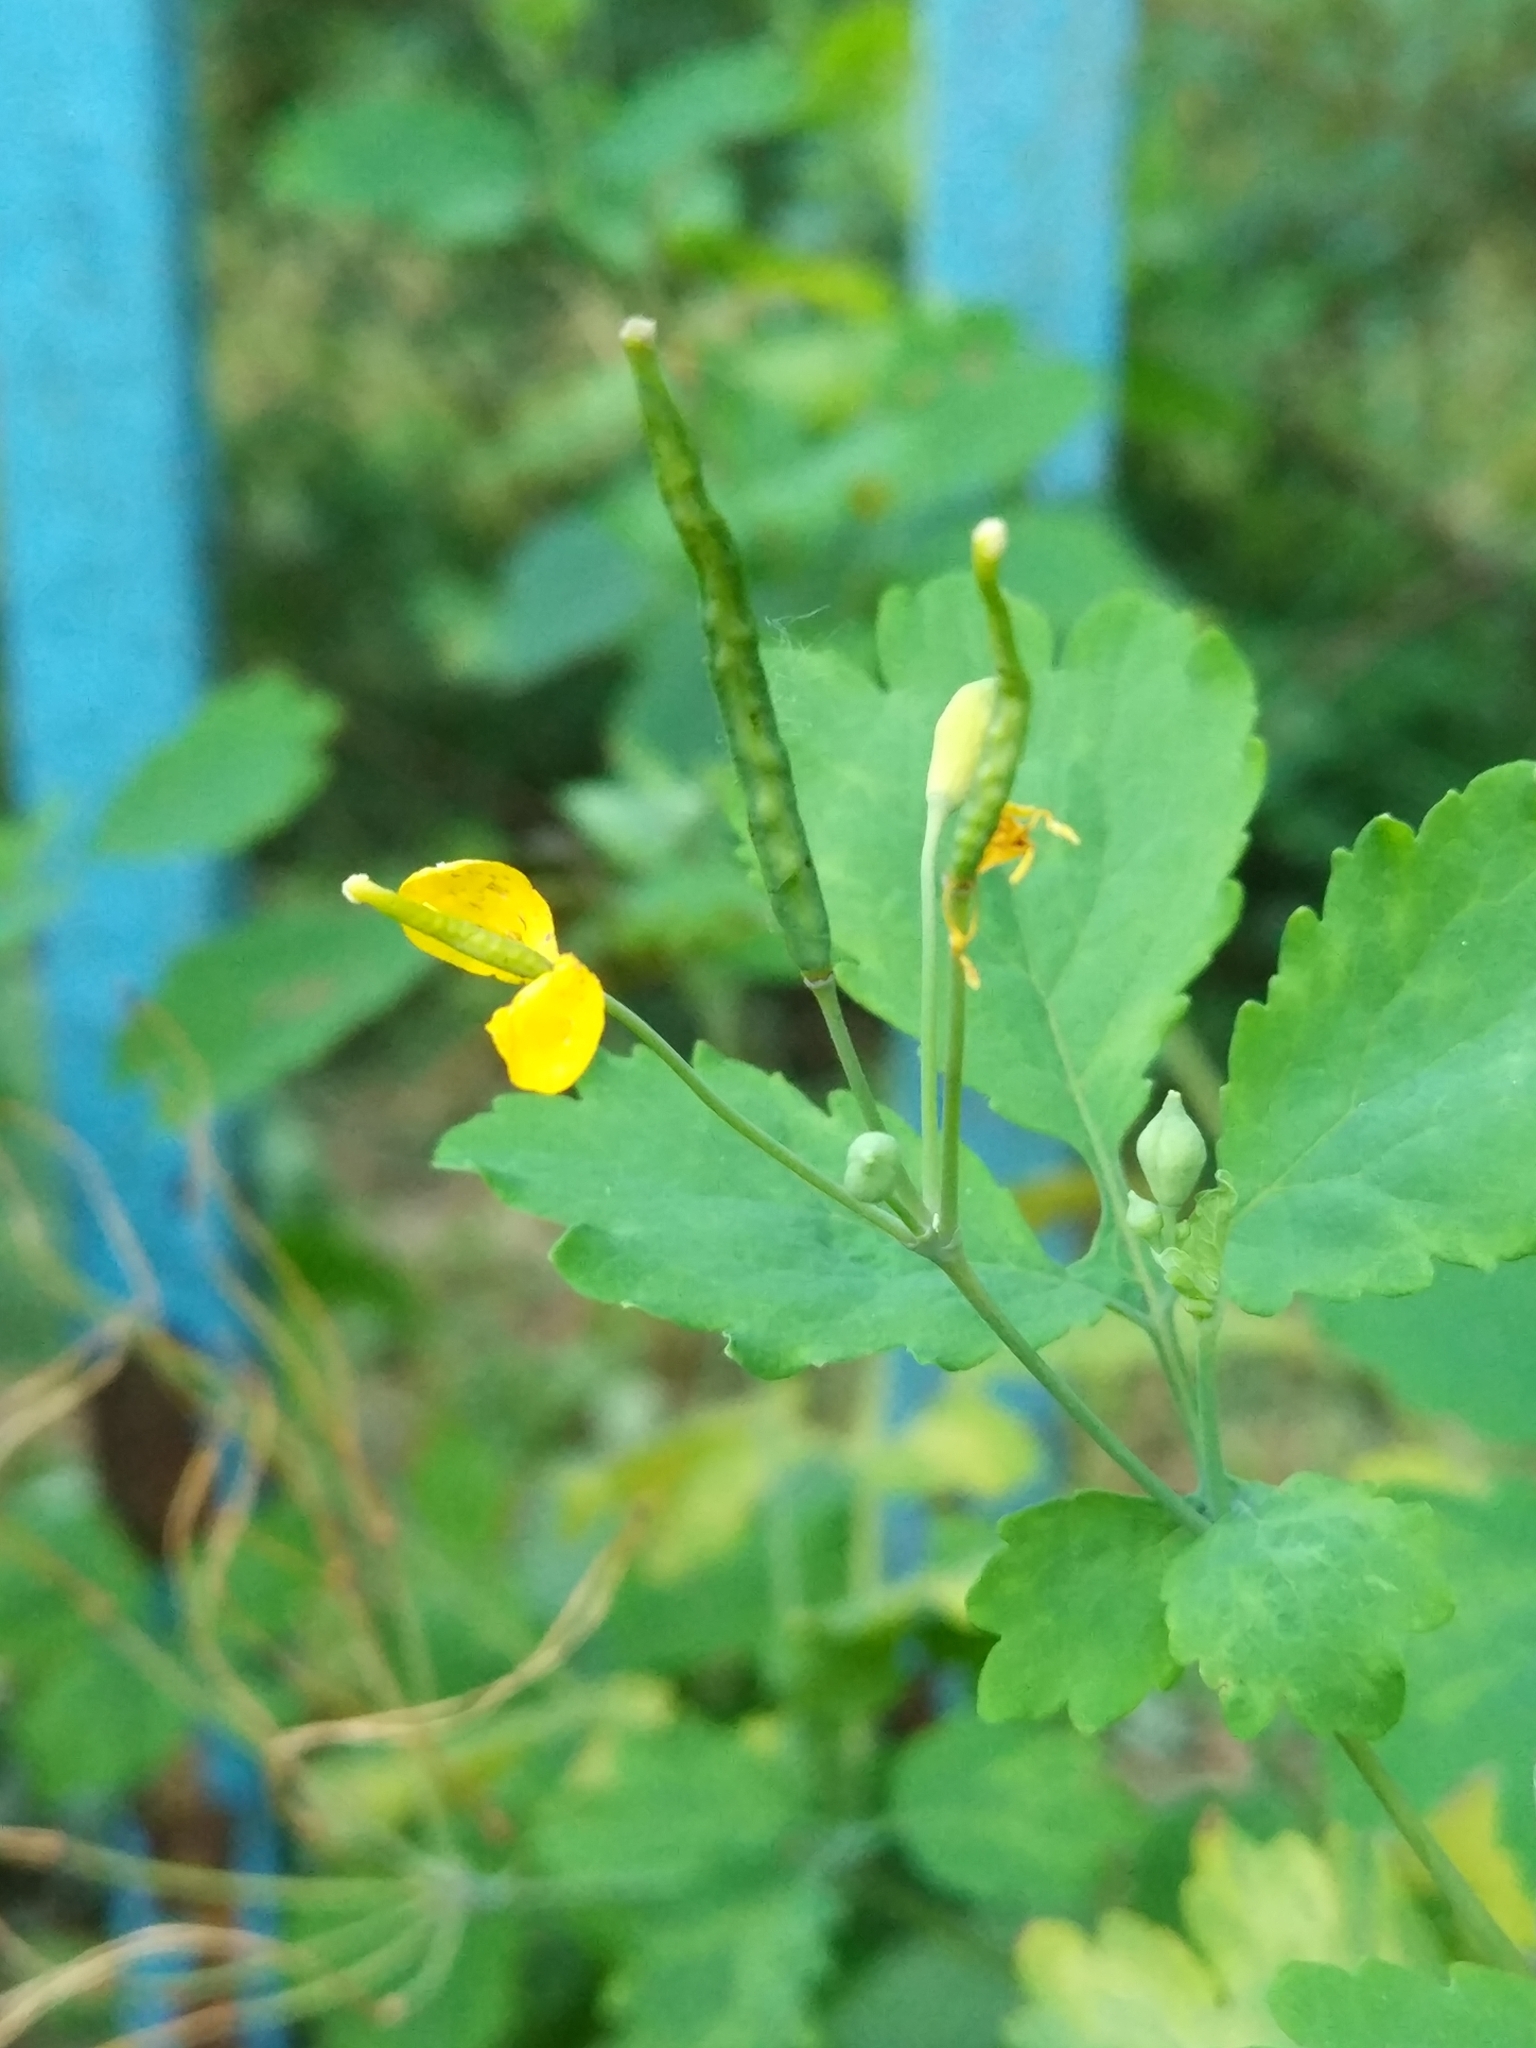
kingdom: Plantae
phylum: Tracheophyta
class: Magnoliopsida
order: Ranunculales
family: Papaveraceae
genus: Chelidonium
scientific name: Chelidonium majus
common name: Greater celandine
